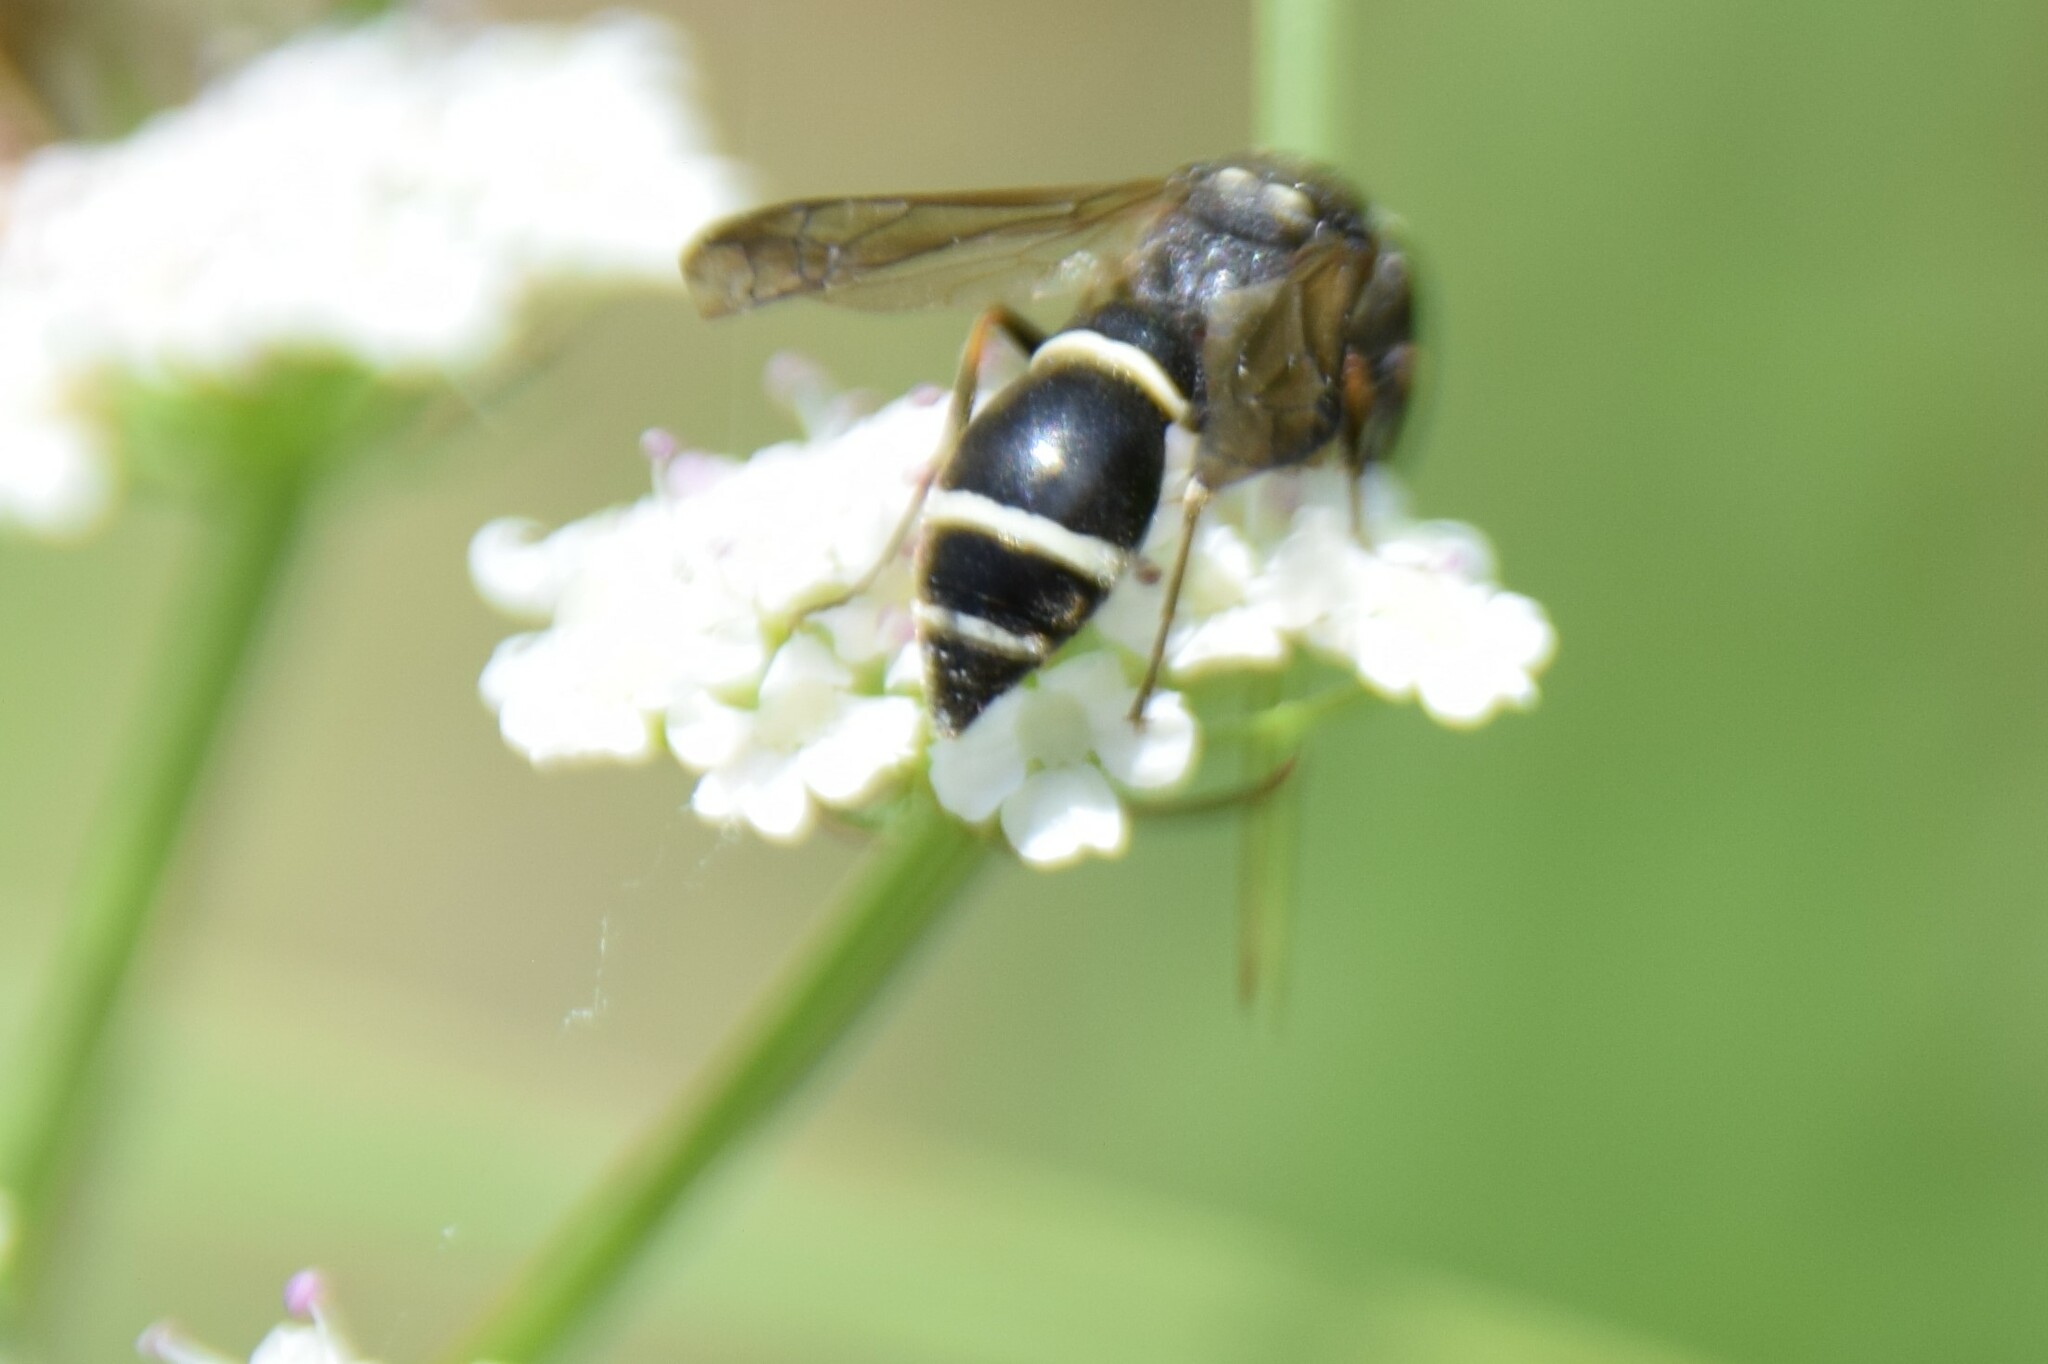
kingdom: Animalia
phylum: Arthropoda
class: Insecta
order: Hymenoptera
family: Eumenidae
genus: Symmorphus
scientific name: Symmorphus
